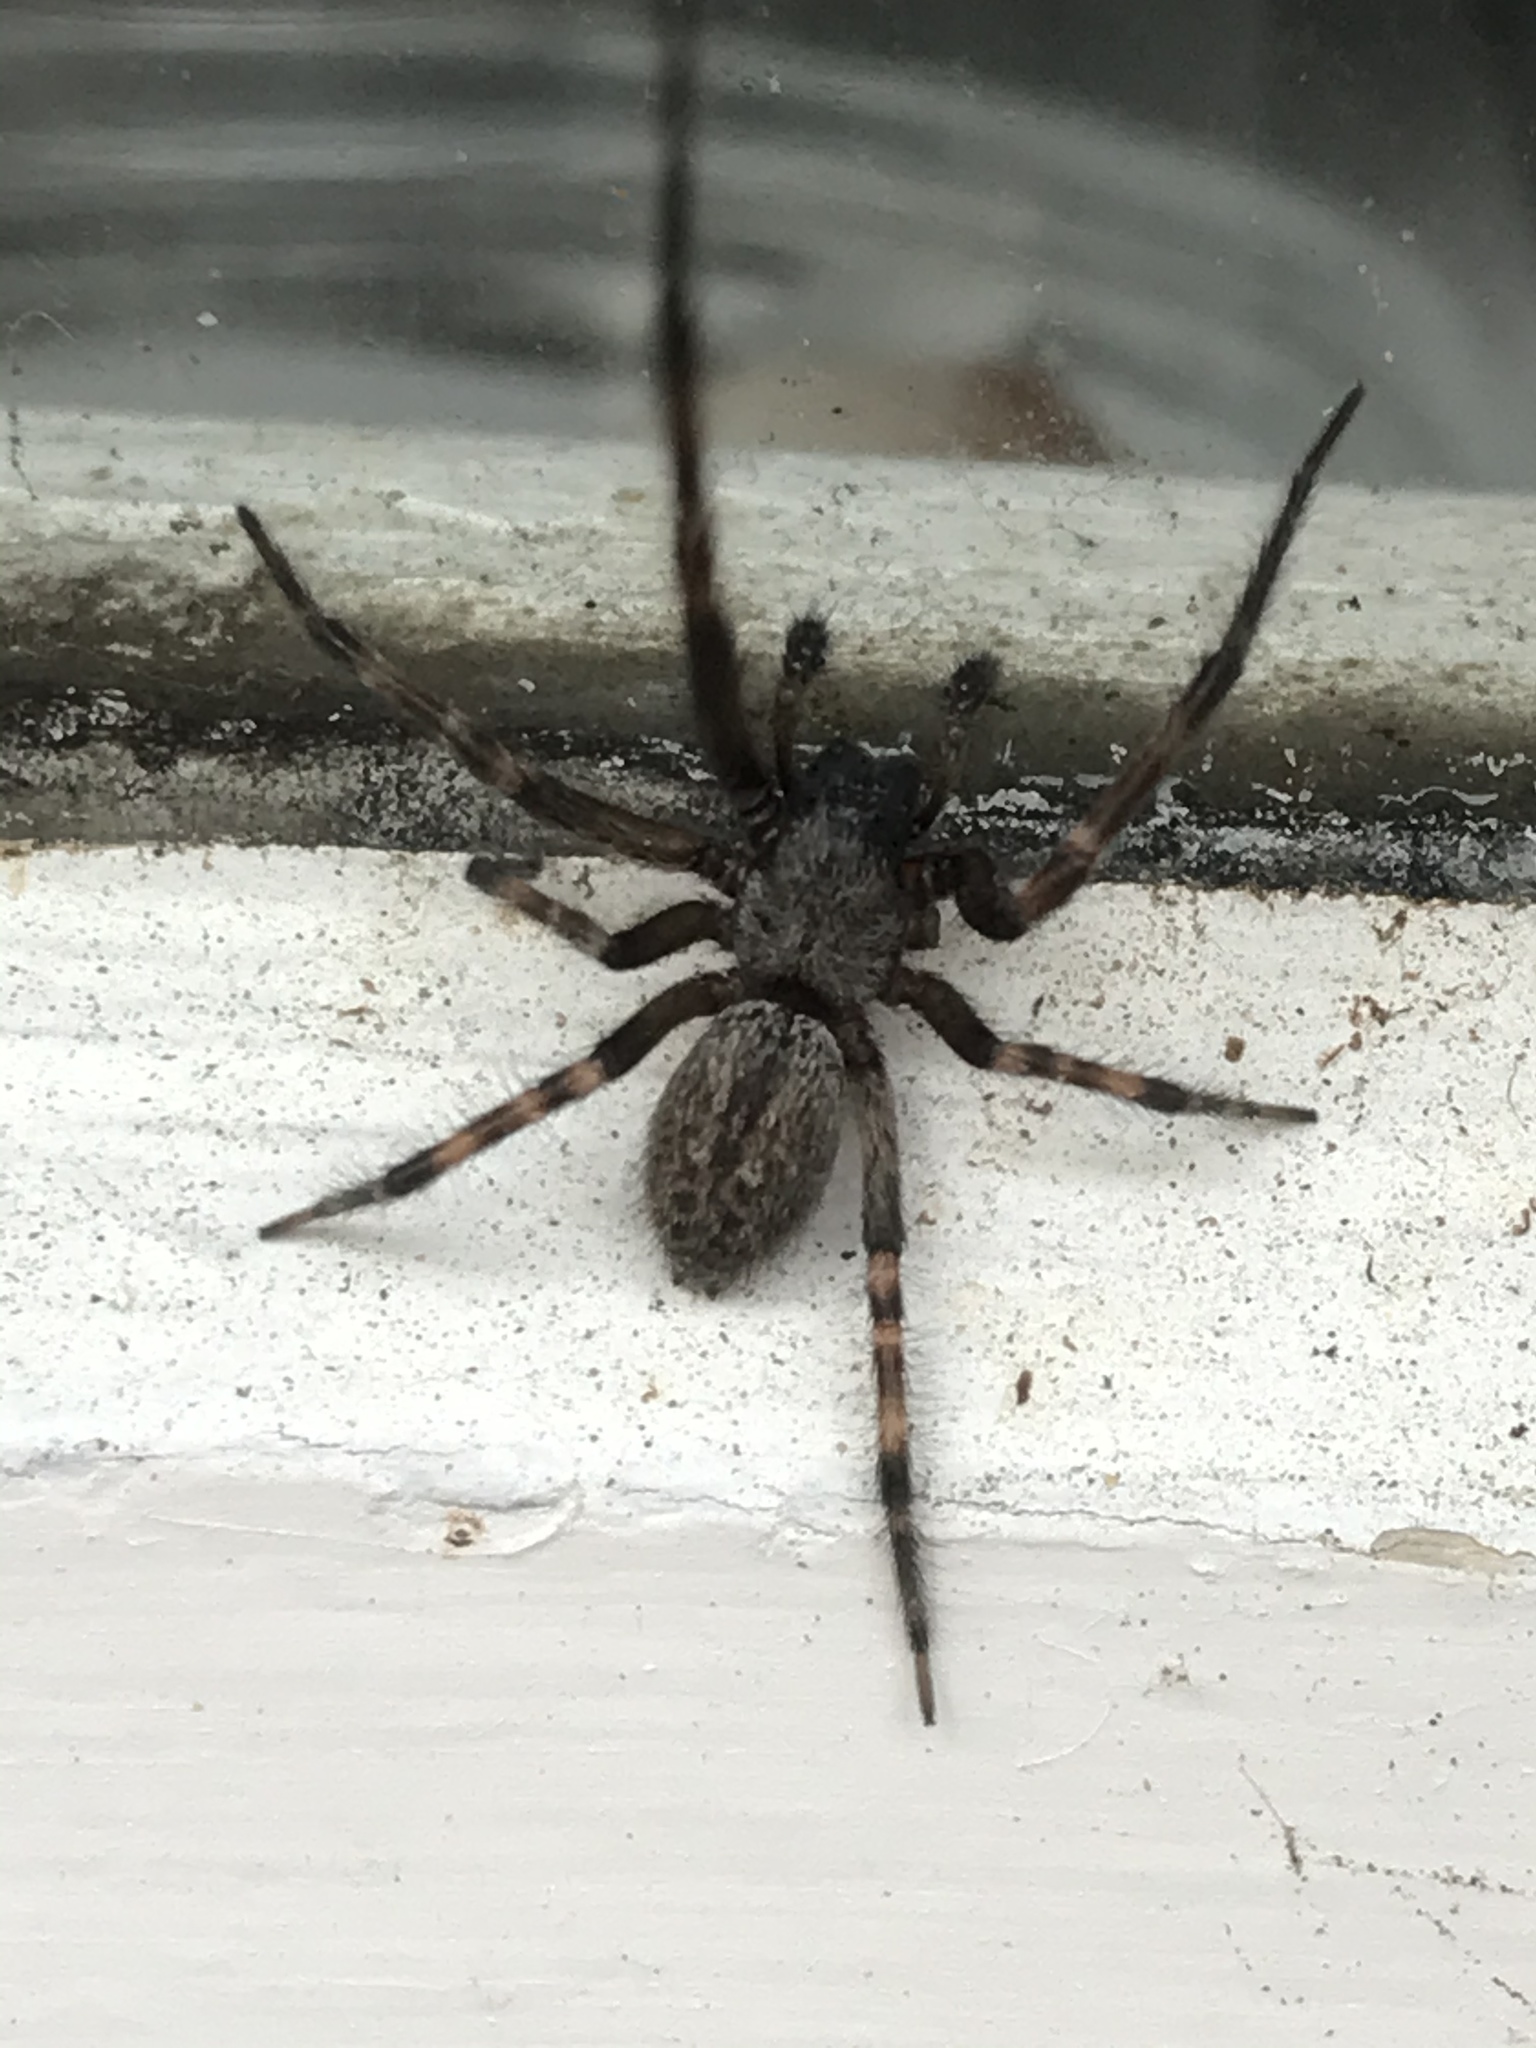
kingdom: Animalia
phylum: Arthropoda
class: Arachnida
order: Araneae
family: Desidae
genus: Badumna
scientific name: Badumna longinqua
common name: Gray house spider
